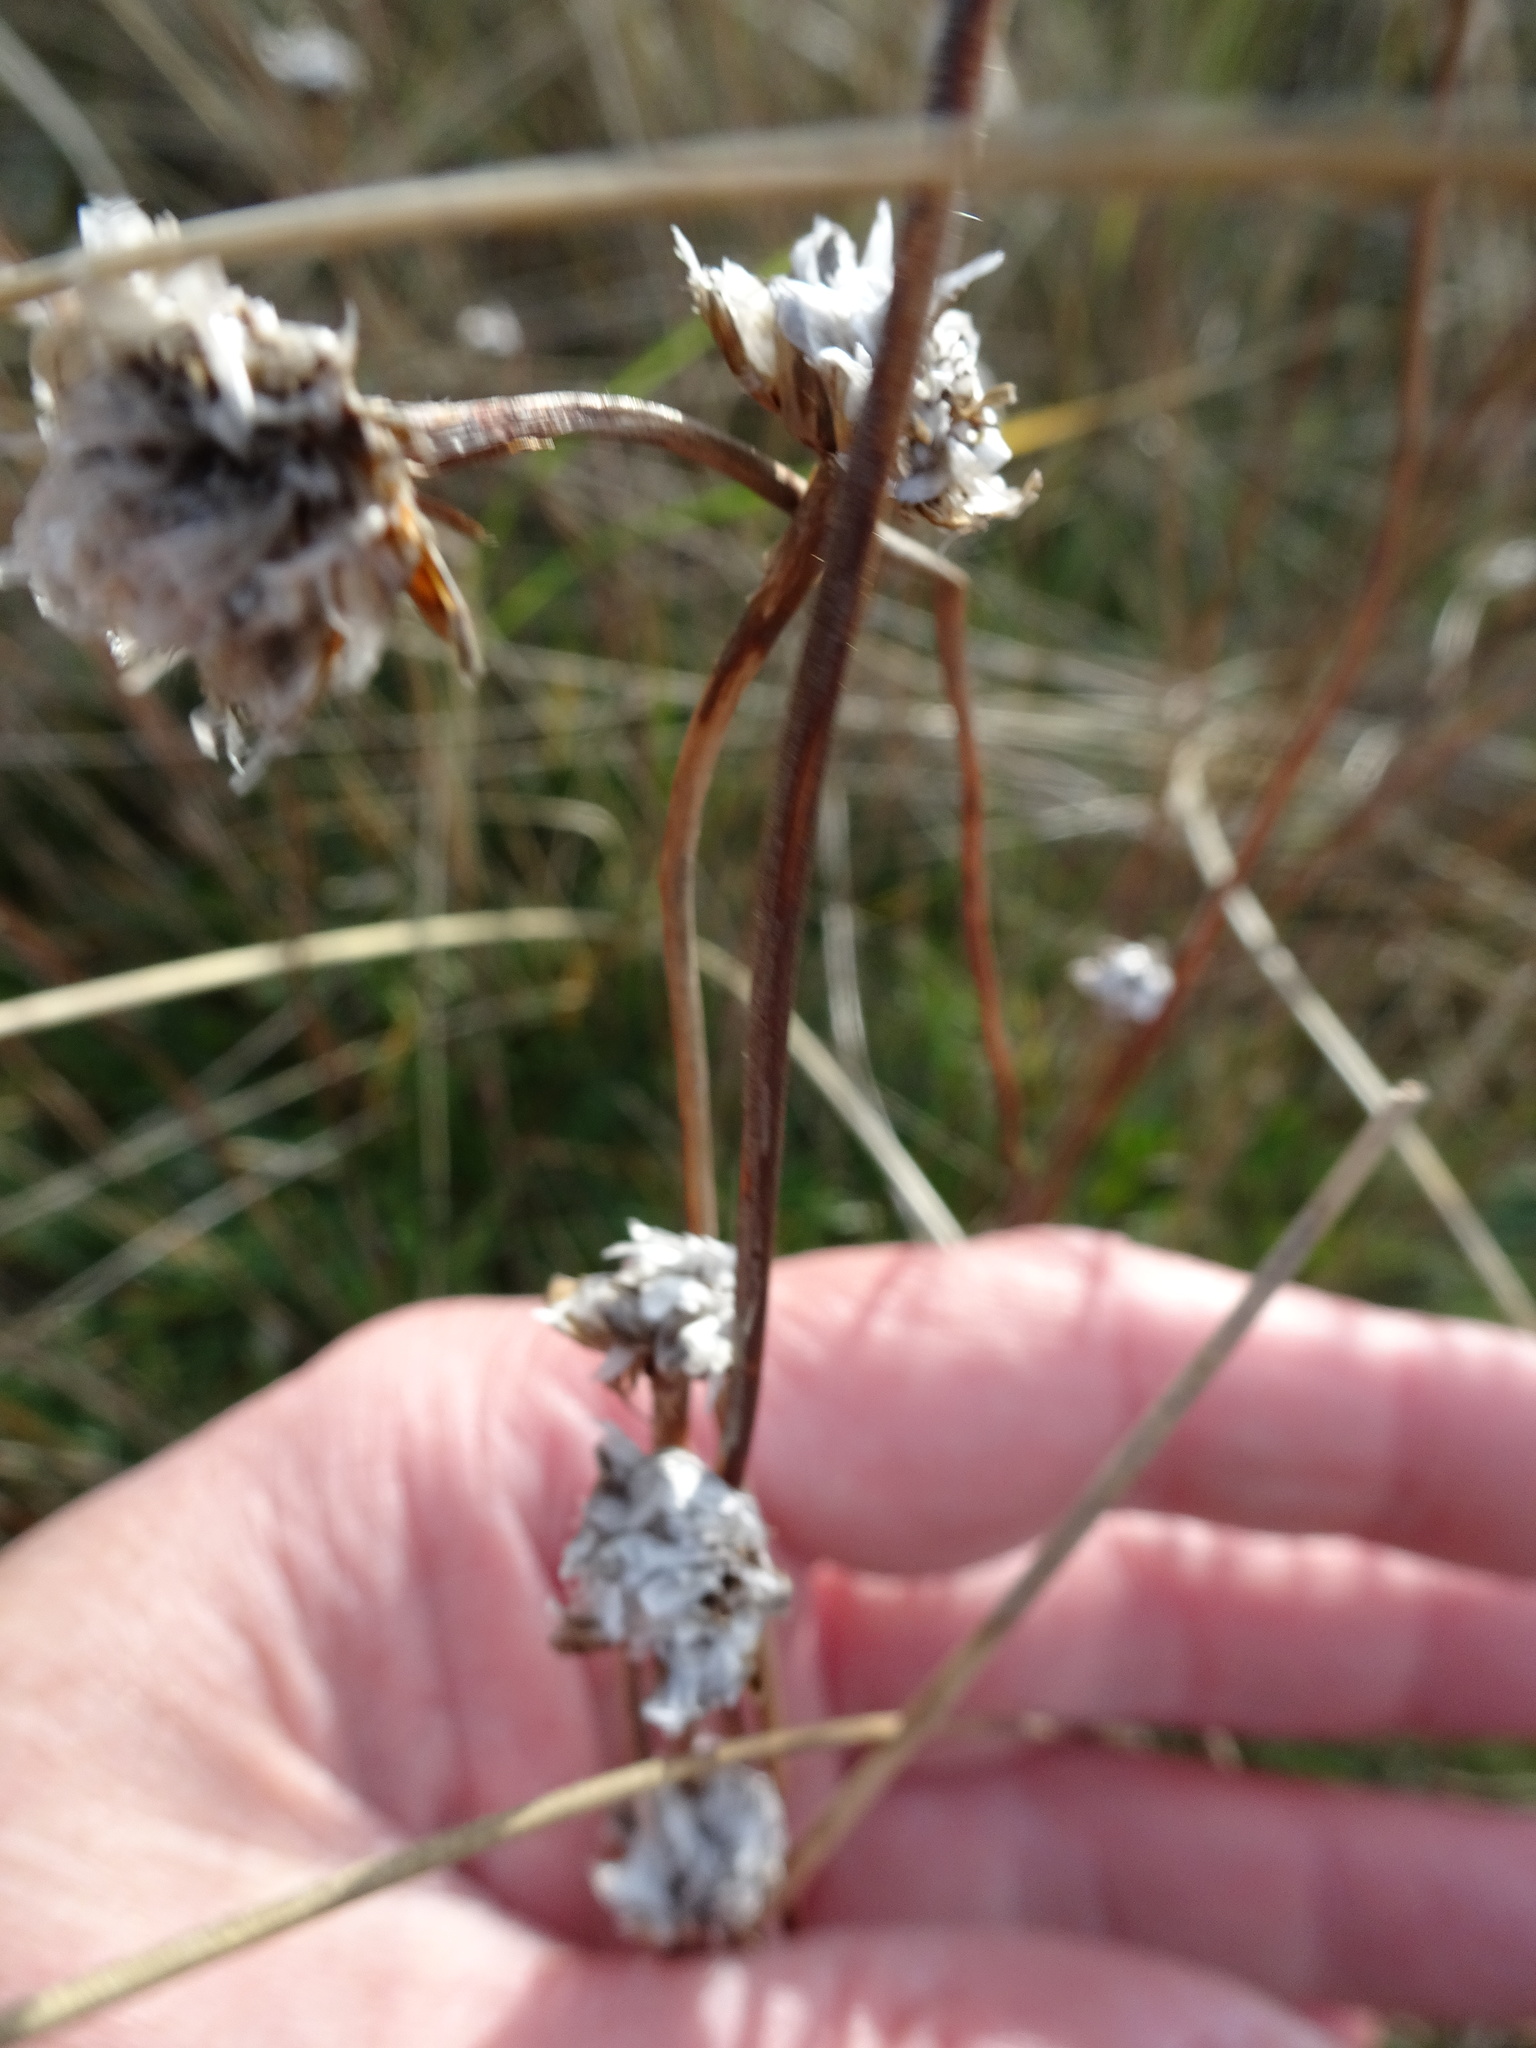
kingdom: Plantae
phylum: Tracheophyta
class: Magnoliopsida
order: Caryophyllales
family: Plumbaginaceae
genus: Armeria
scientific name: Armeria maritima
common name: Thrift
